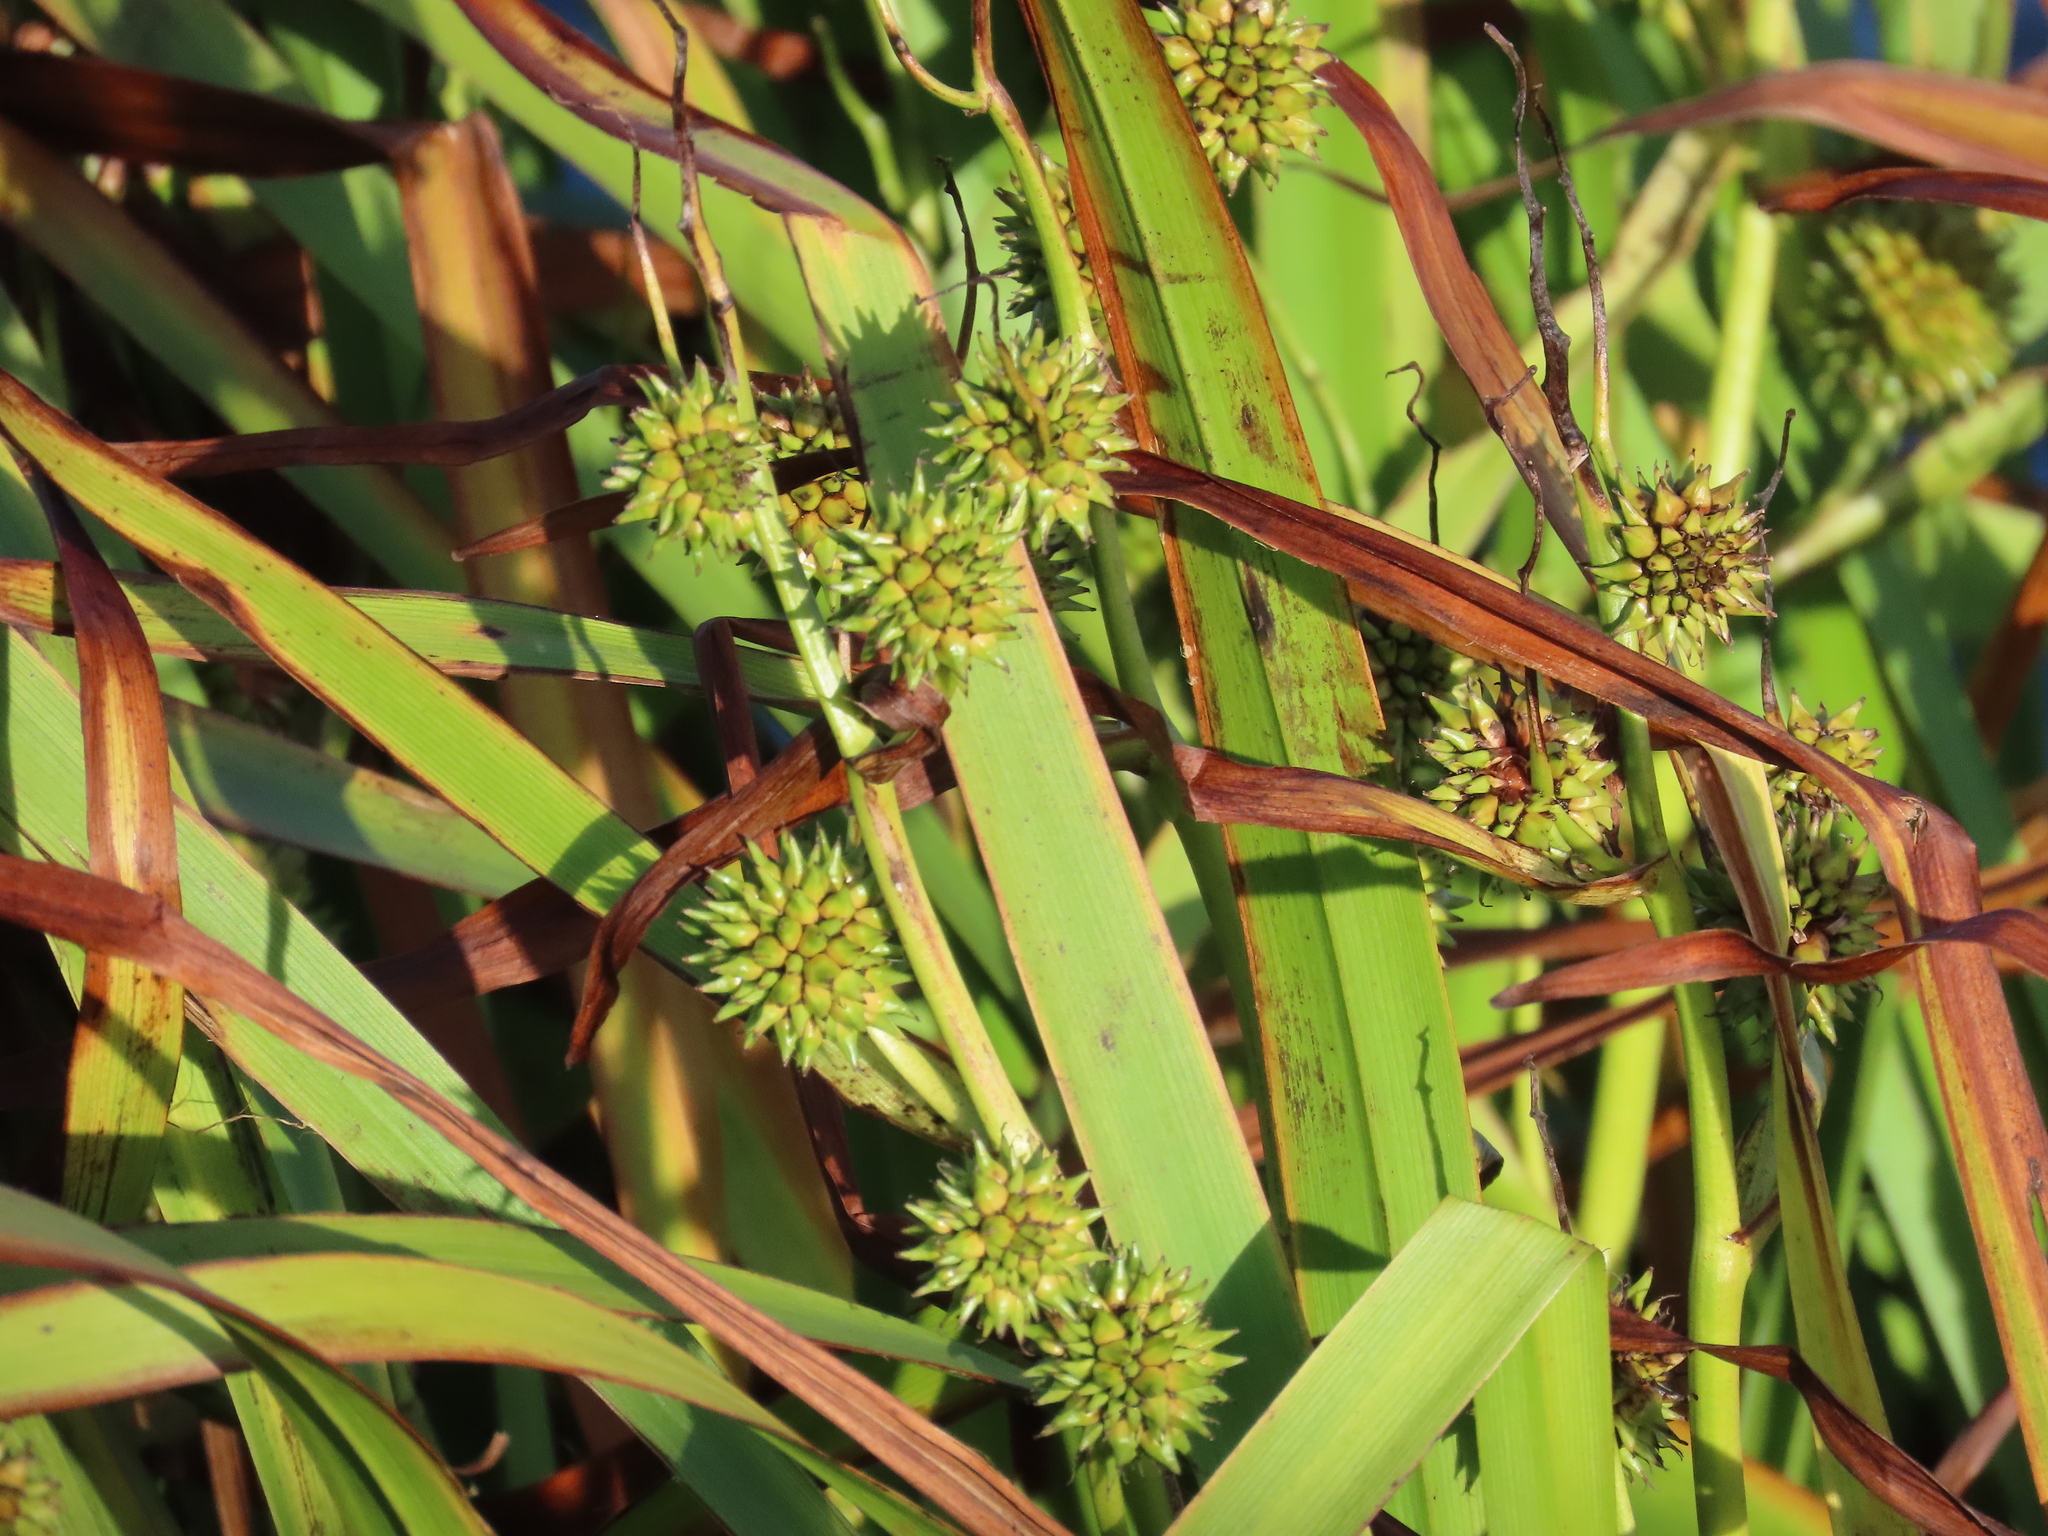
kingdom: Plantae
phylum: Tracheophyta
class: Liliopsida
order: Poales
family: Typhaceae
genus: Sparganium
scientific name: Sparganium erectum
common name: Branched bur-reed
